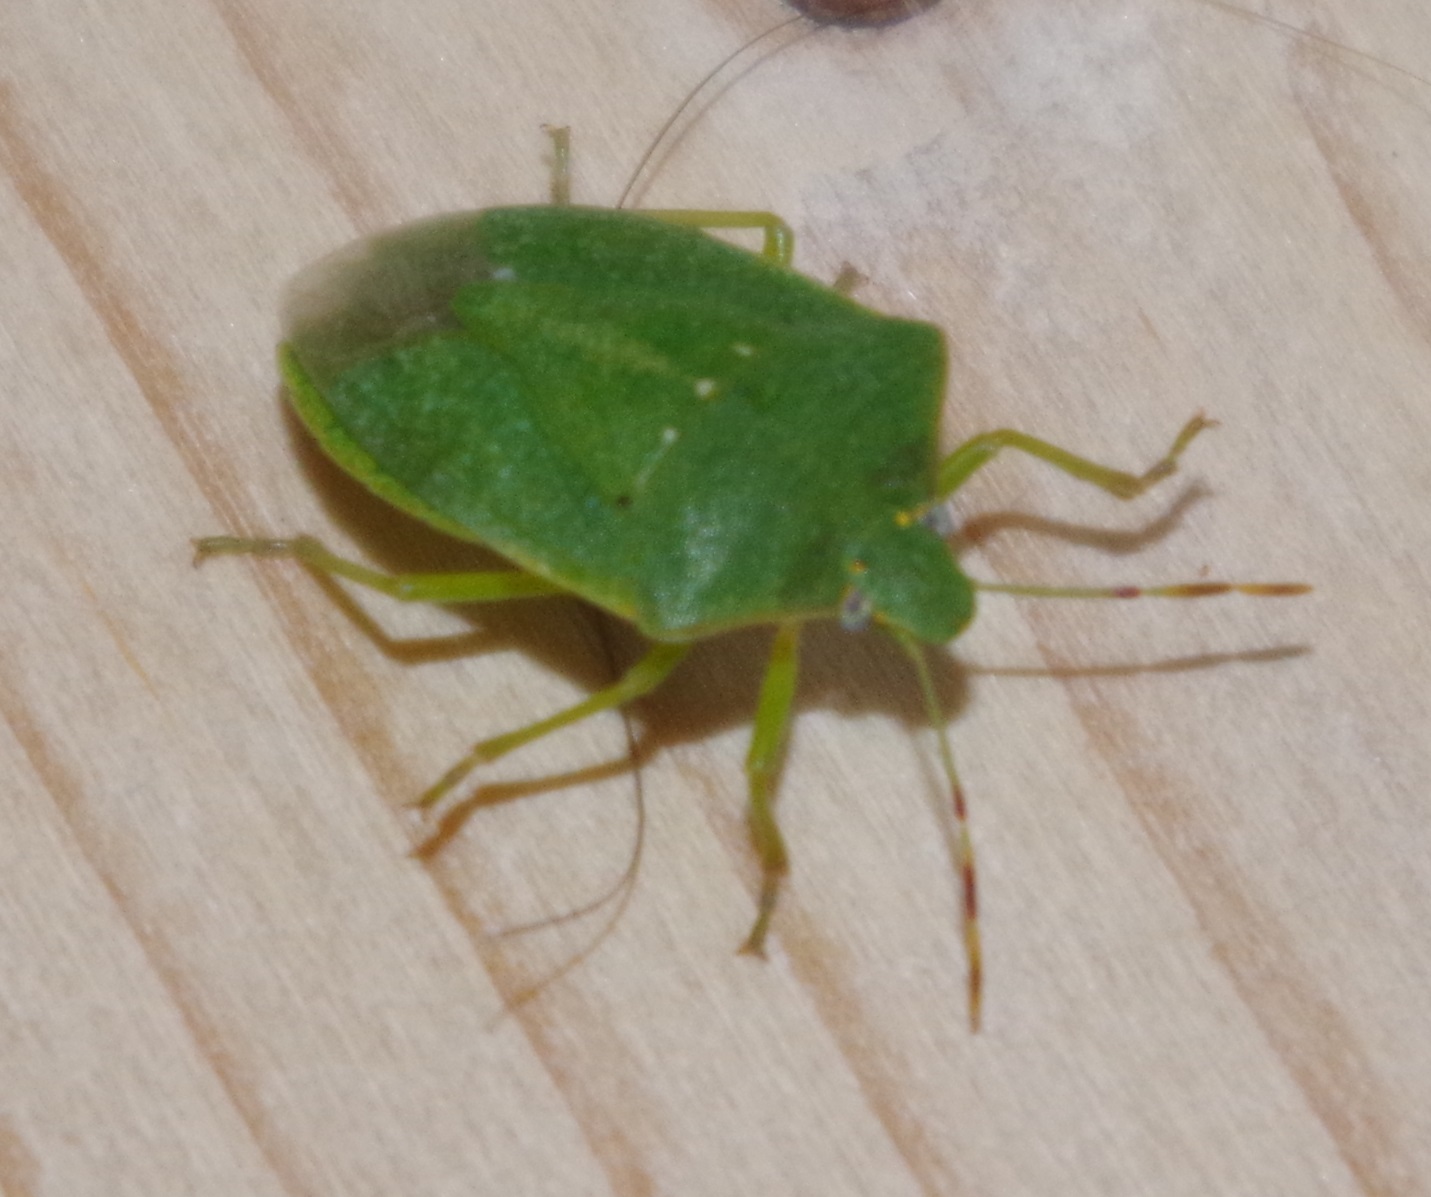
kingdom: Animalia
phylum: Arthropoda
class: Insecta
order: Hemiptera
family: Pentatomidae
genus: Nezara
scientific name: Nezara viridula
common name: Southern green stink bug
